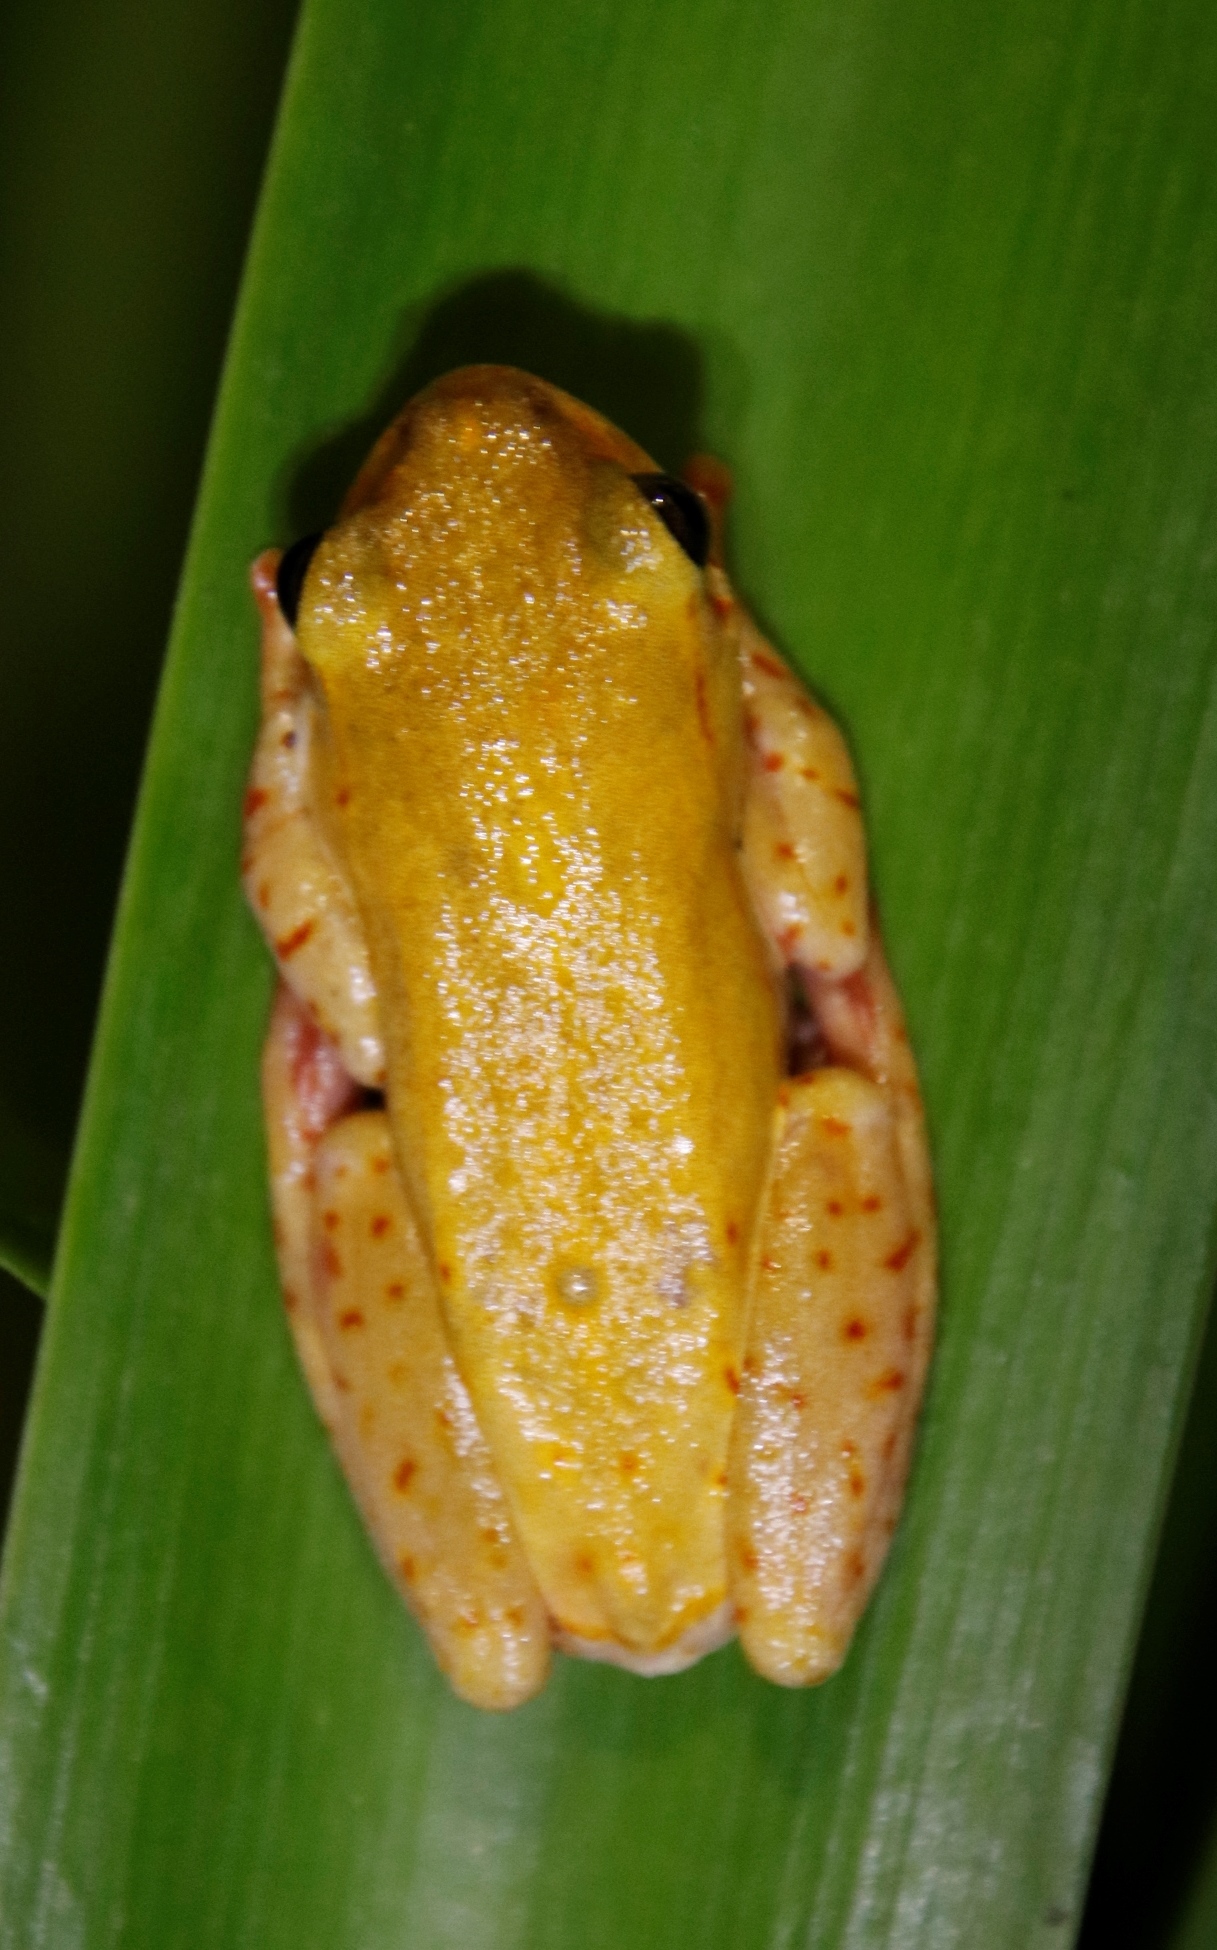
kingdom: Animalia
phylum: Chordata
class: Amphibia
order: Anura
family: Hyperoliidae
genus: Hyperolius
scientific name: Hyperolius marmoratus
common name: Painted reed frog
